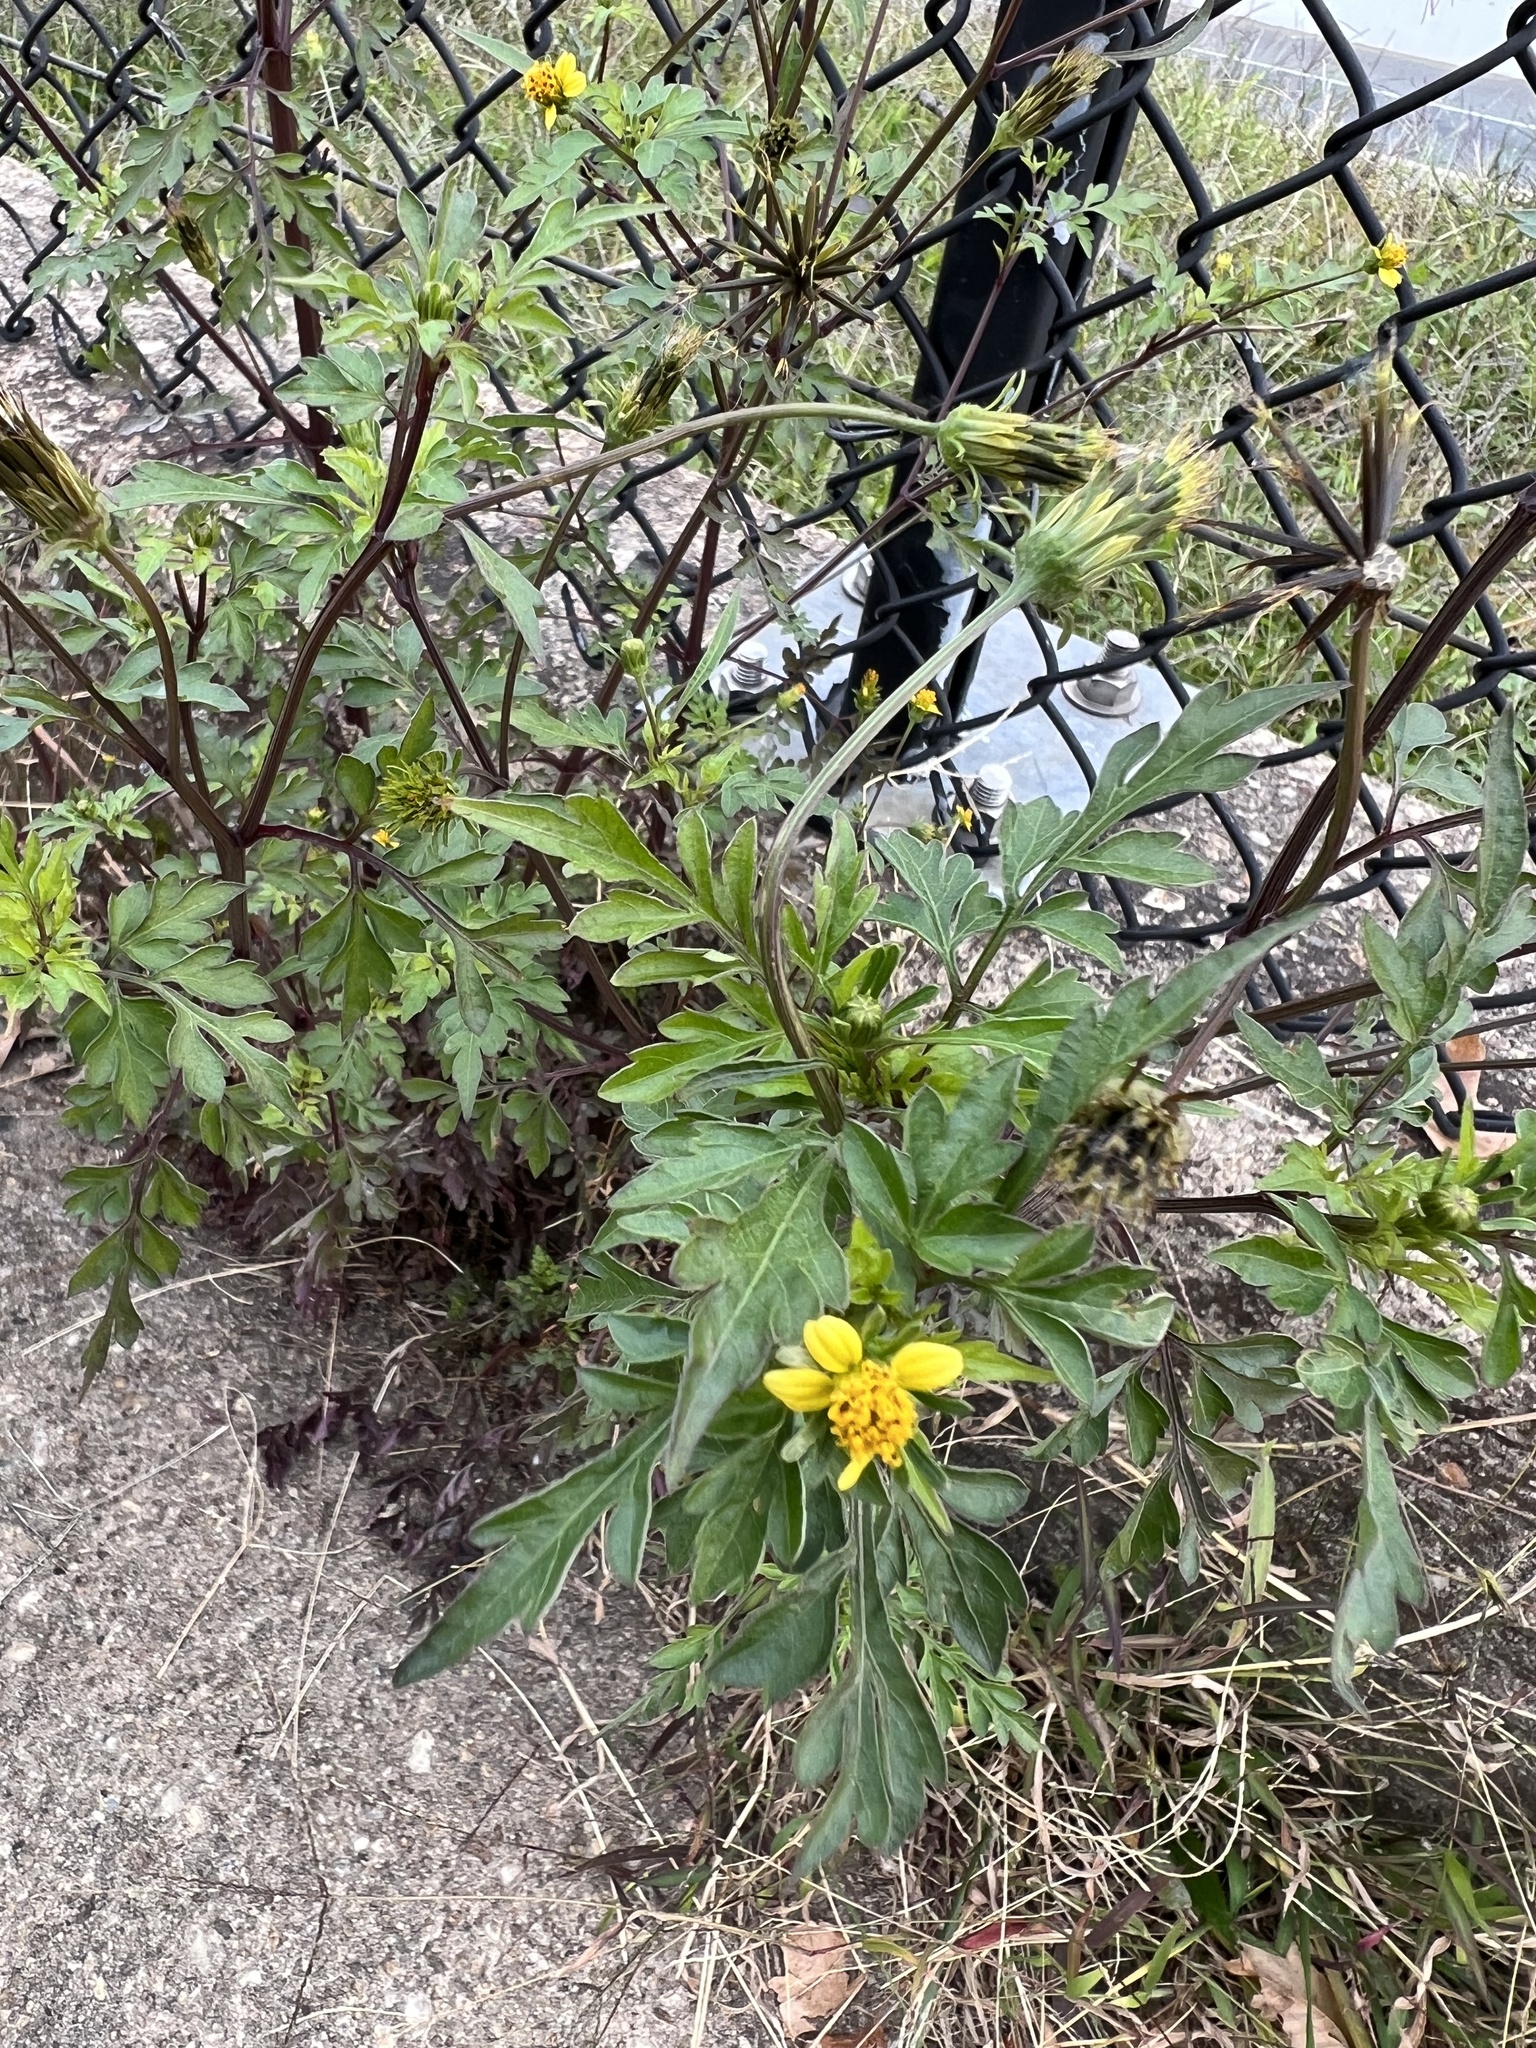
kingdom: Plantae
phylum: Tracheophyta
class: Magnoliopsida
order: Asterales
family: Asteraceae
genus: Bidens
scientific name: Bidens bipinnata
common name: Spanish-needles
